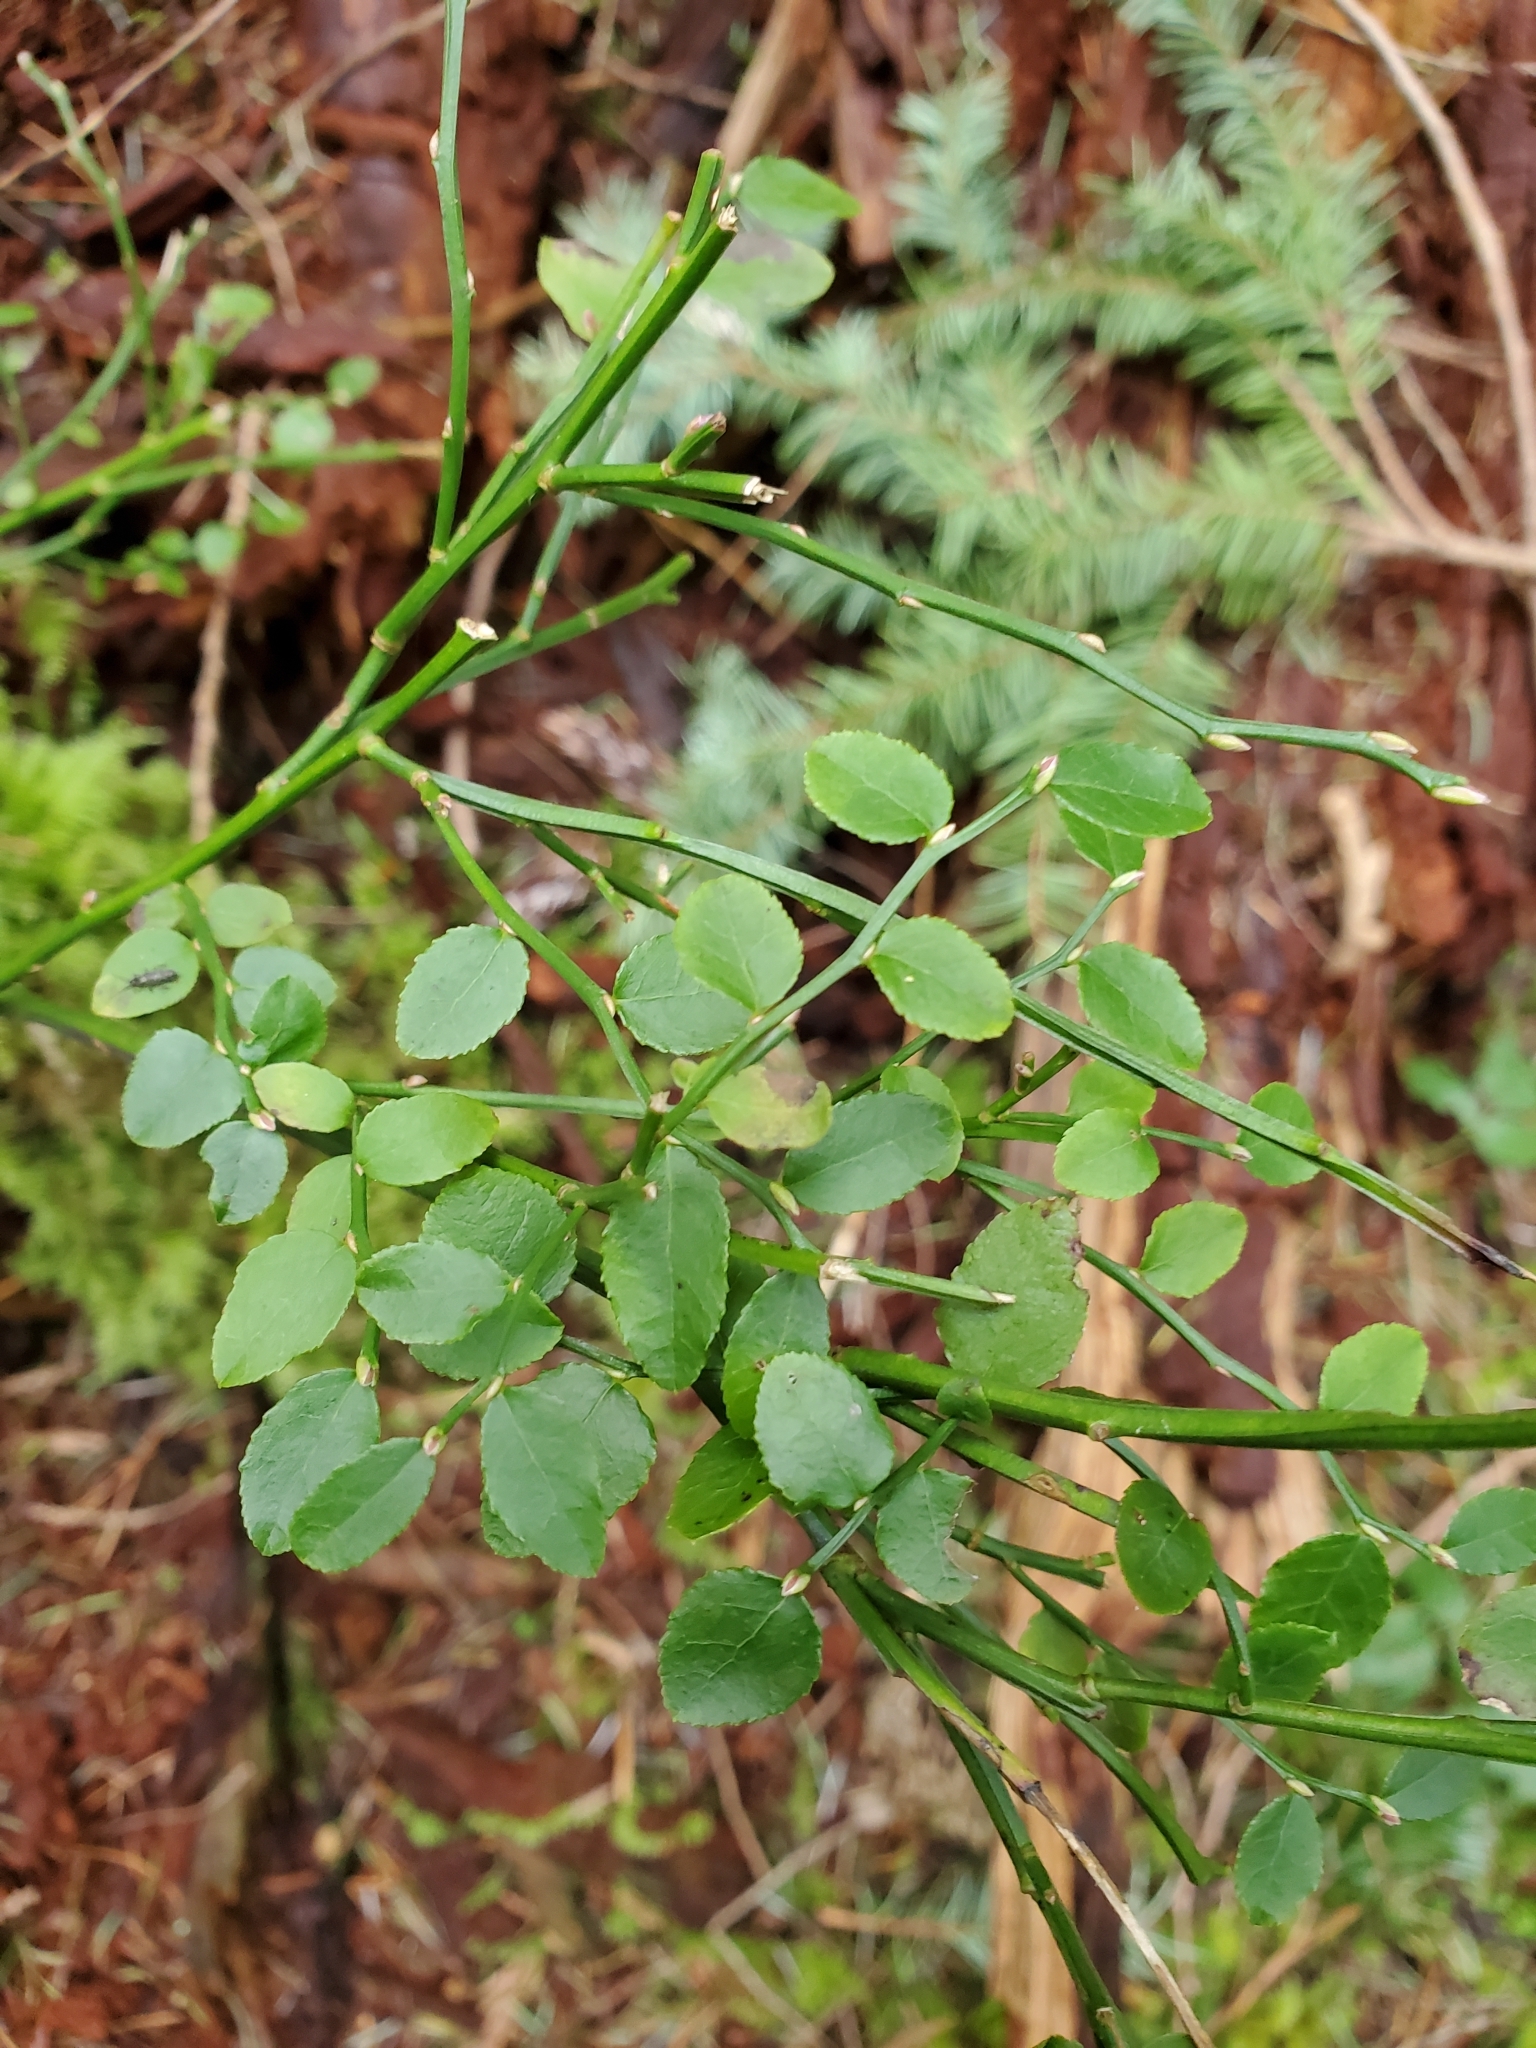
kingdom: Plantae
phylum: Tracheophyta
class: Magnoliopsida
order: Ericales
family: Ericaceae
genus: Vaccinium
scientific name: Vaccinium parvifolium
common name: Red-huckleberry
